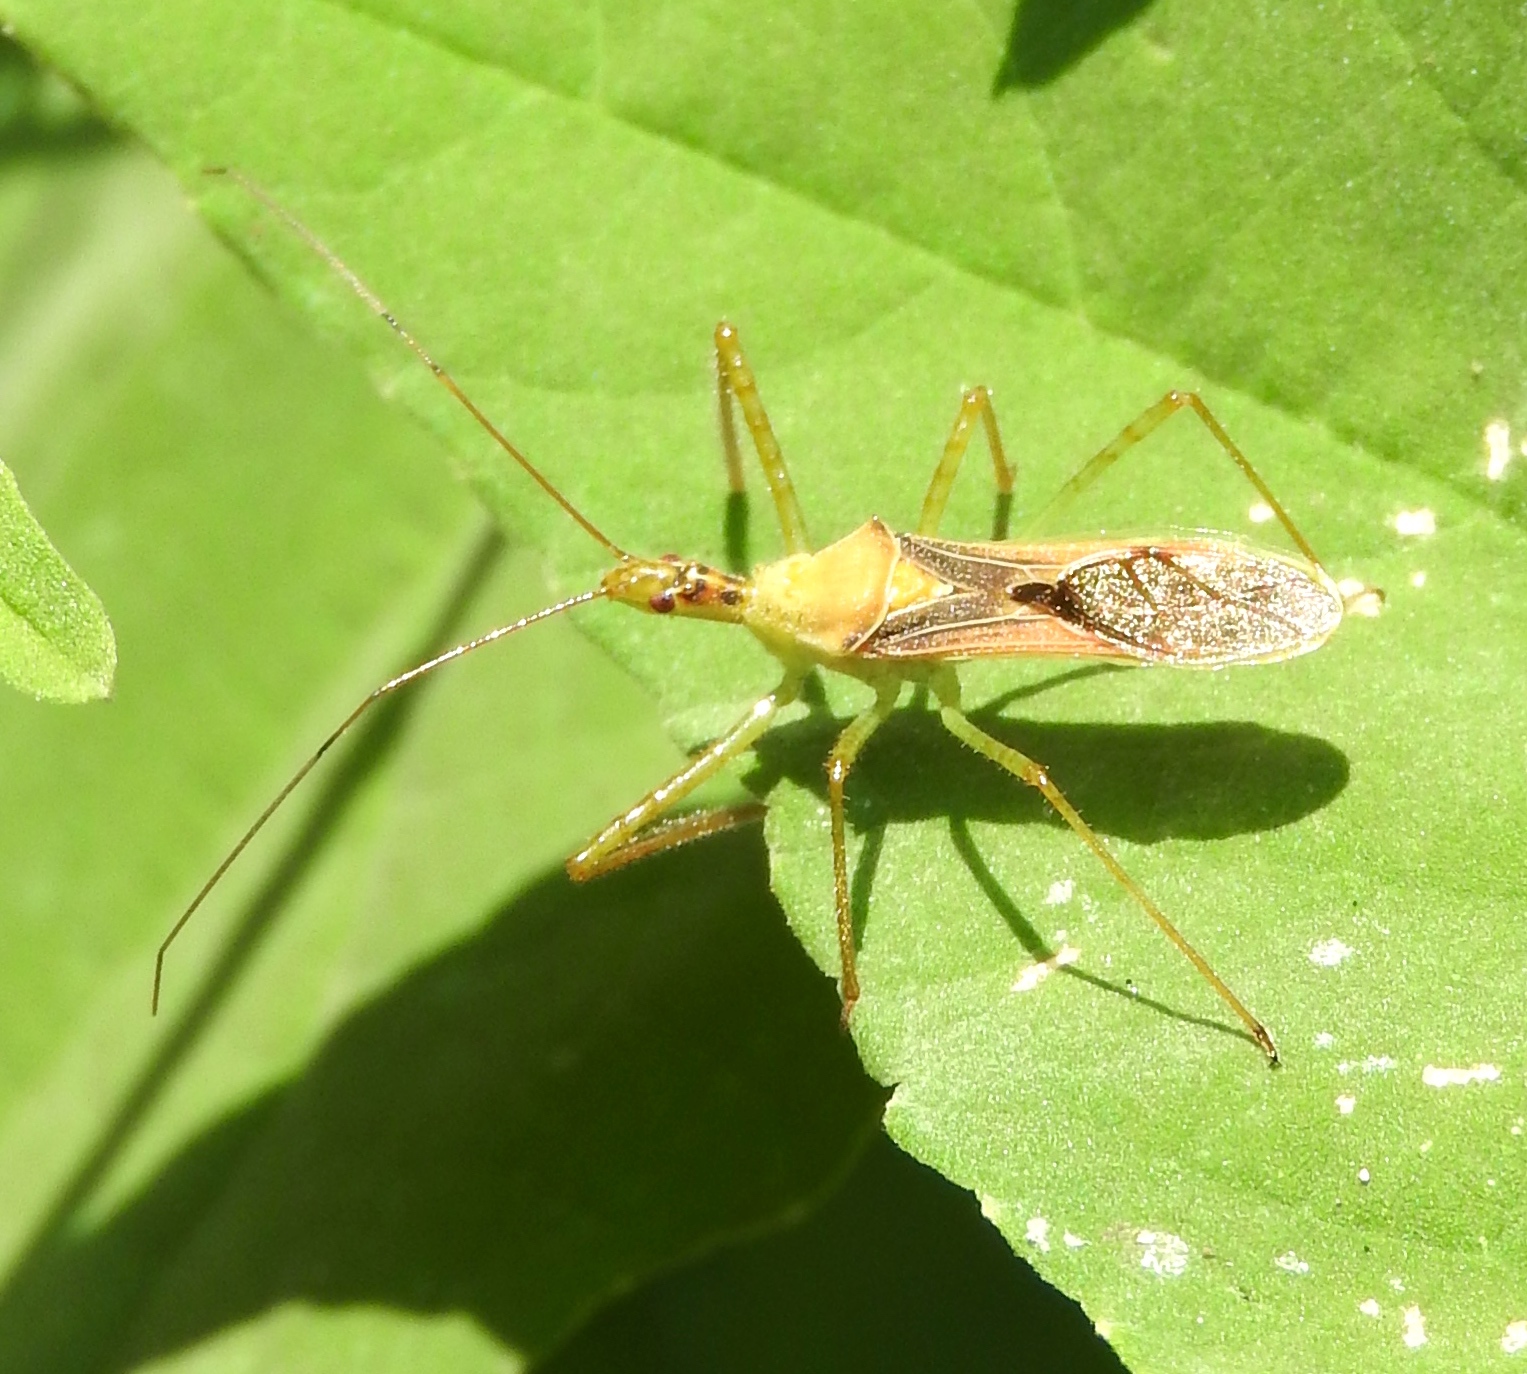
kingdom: Animalia
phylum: Arthropoda
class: Insecta
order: Hemiptera
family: Reduviidae
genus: Zelus
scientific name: Zelus
